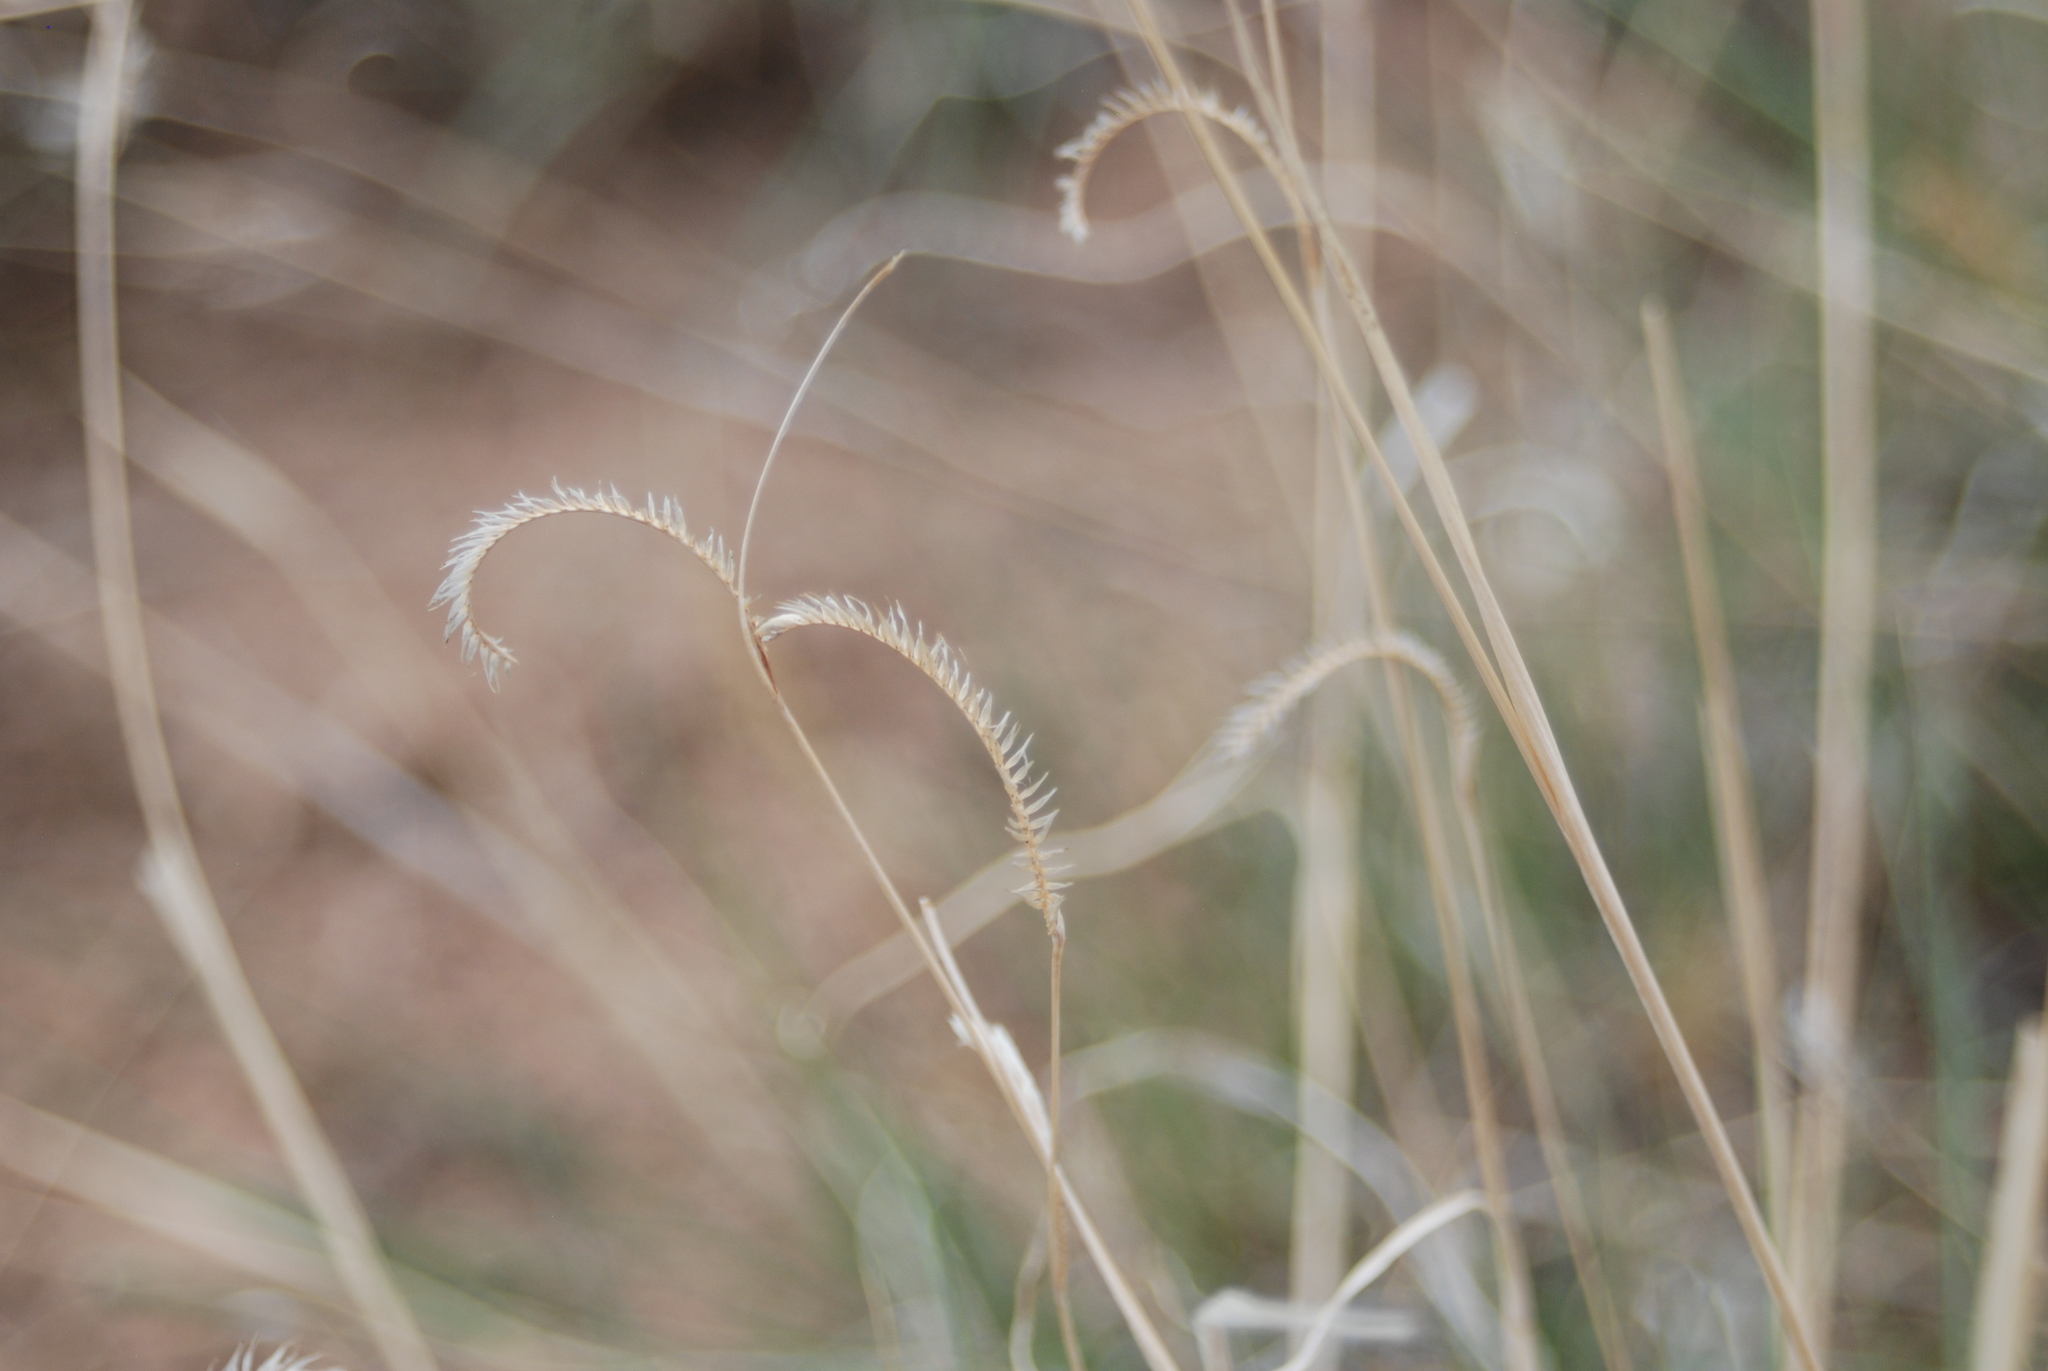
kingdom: Plantae
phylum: Tracheophyta
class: Liliopsida
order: Poales
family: Poaceae
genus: Bouteloua
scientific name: Bouteloua gracilis
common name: Blue grama
